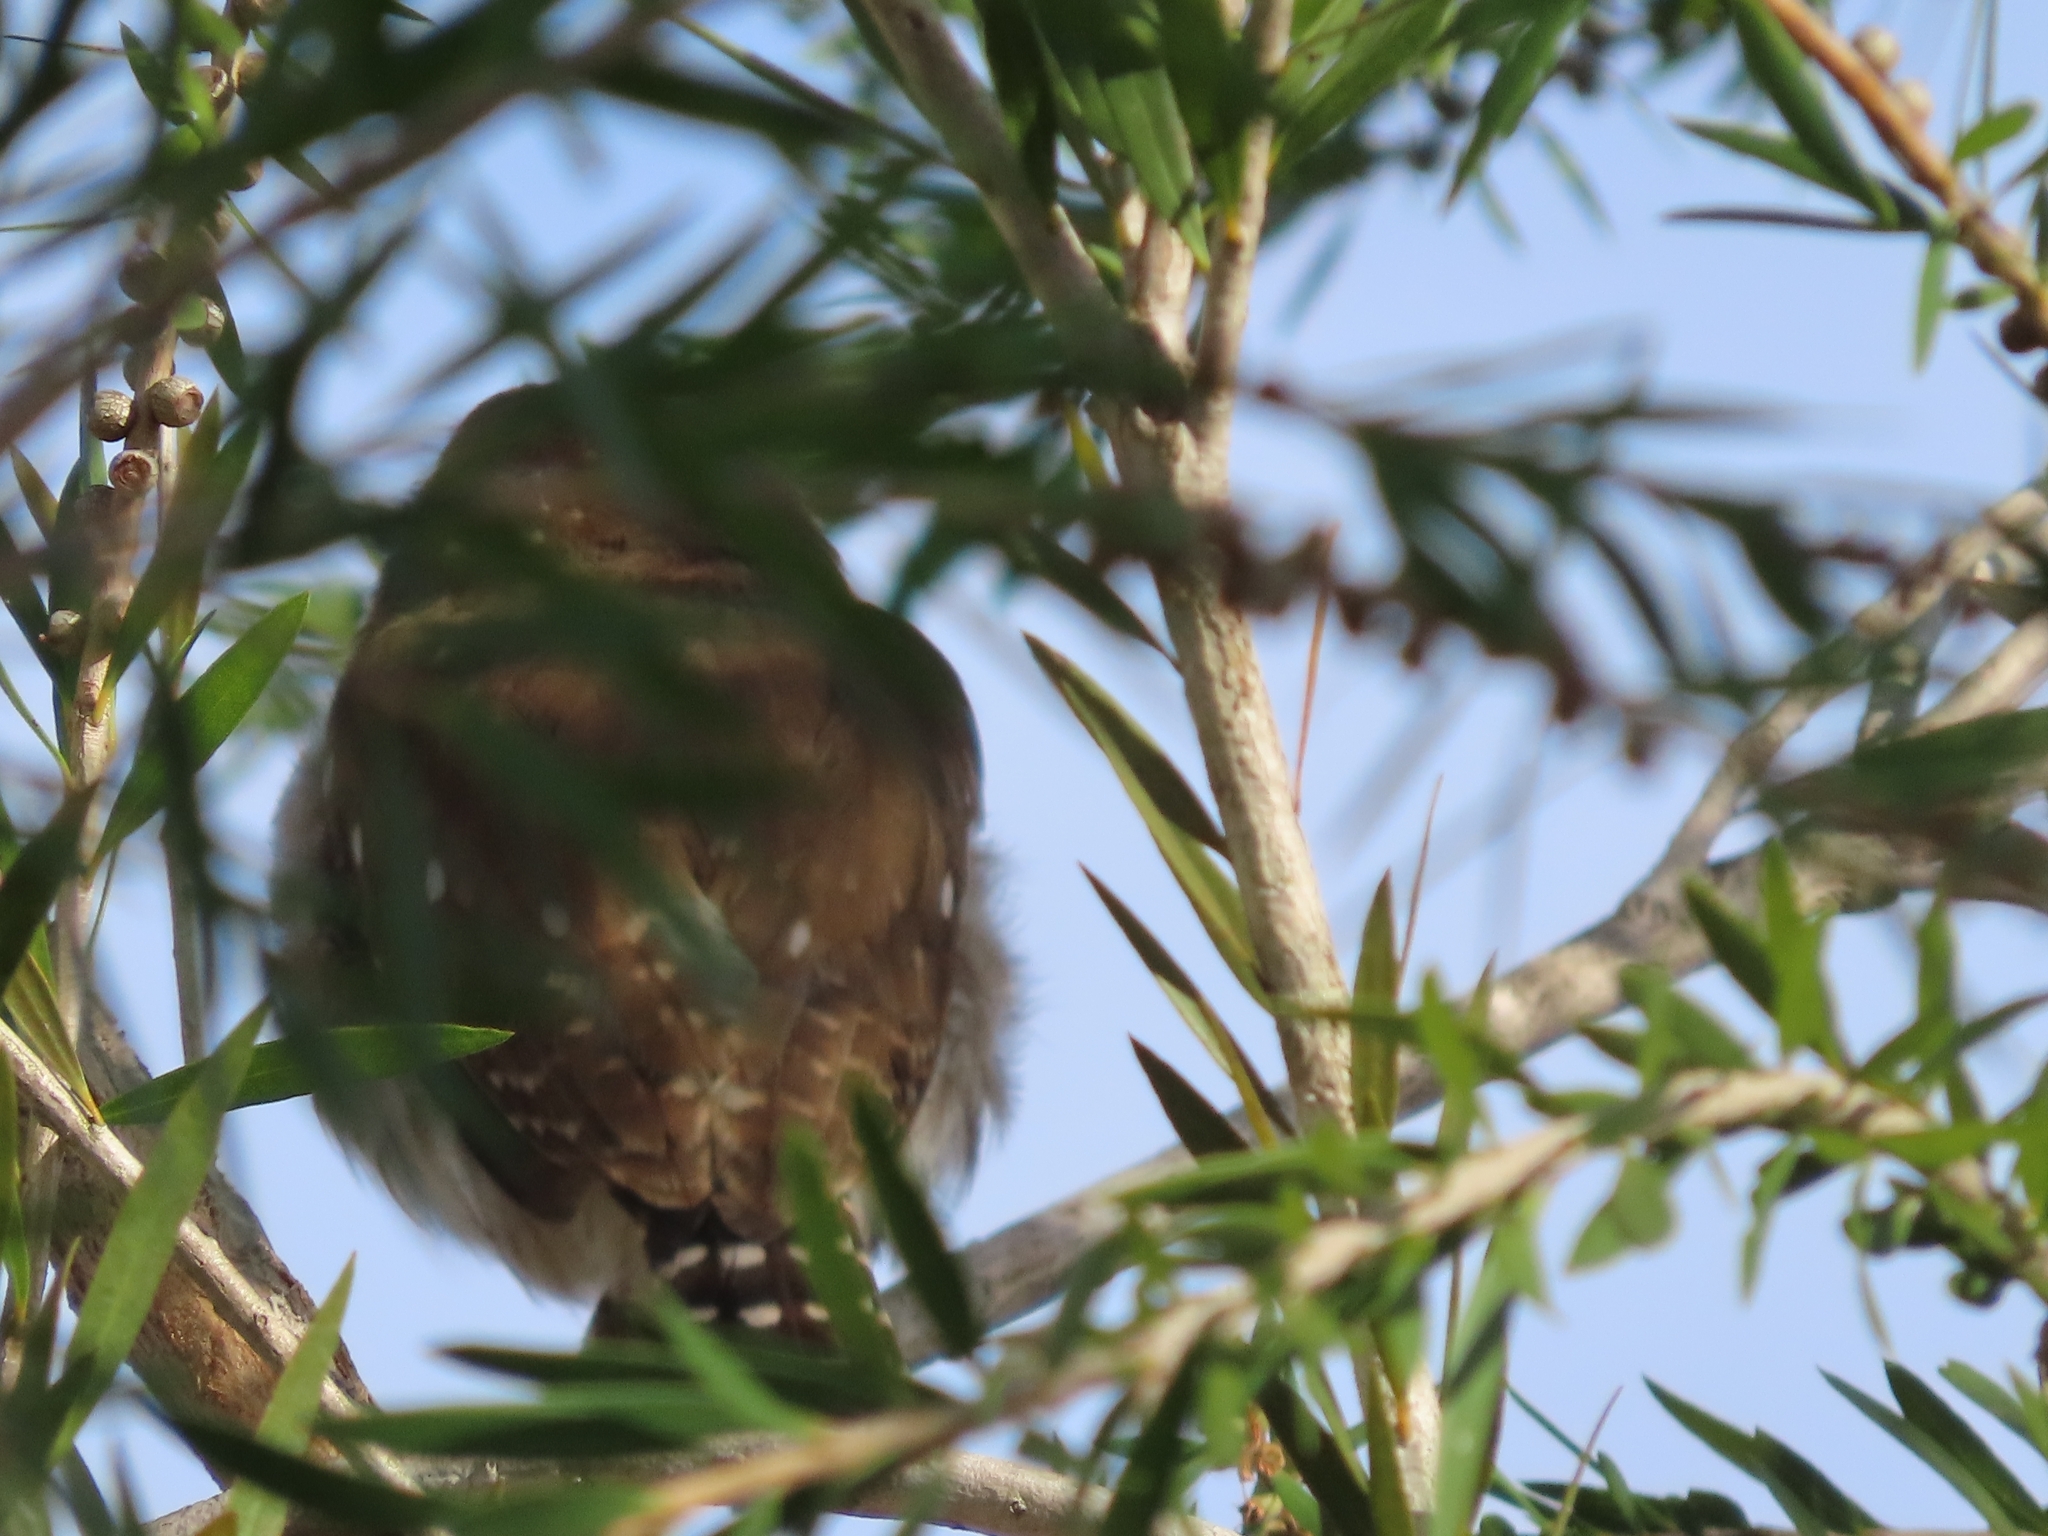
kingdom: Animalia
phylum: Chordata
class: Aves
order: Strigiformes
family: Strigidae
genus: Glaucidium
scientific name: Glaucidium brasilianum
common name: Ferruginous pygmy-owl
